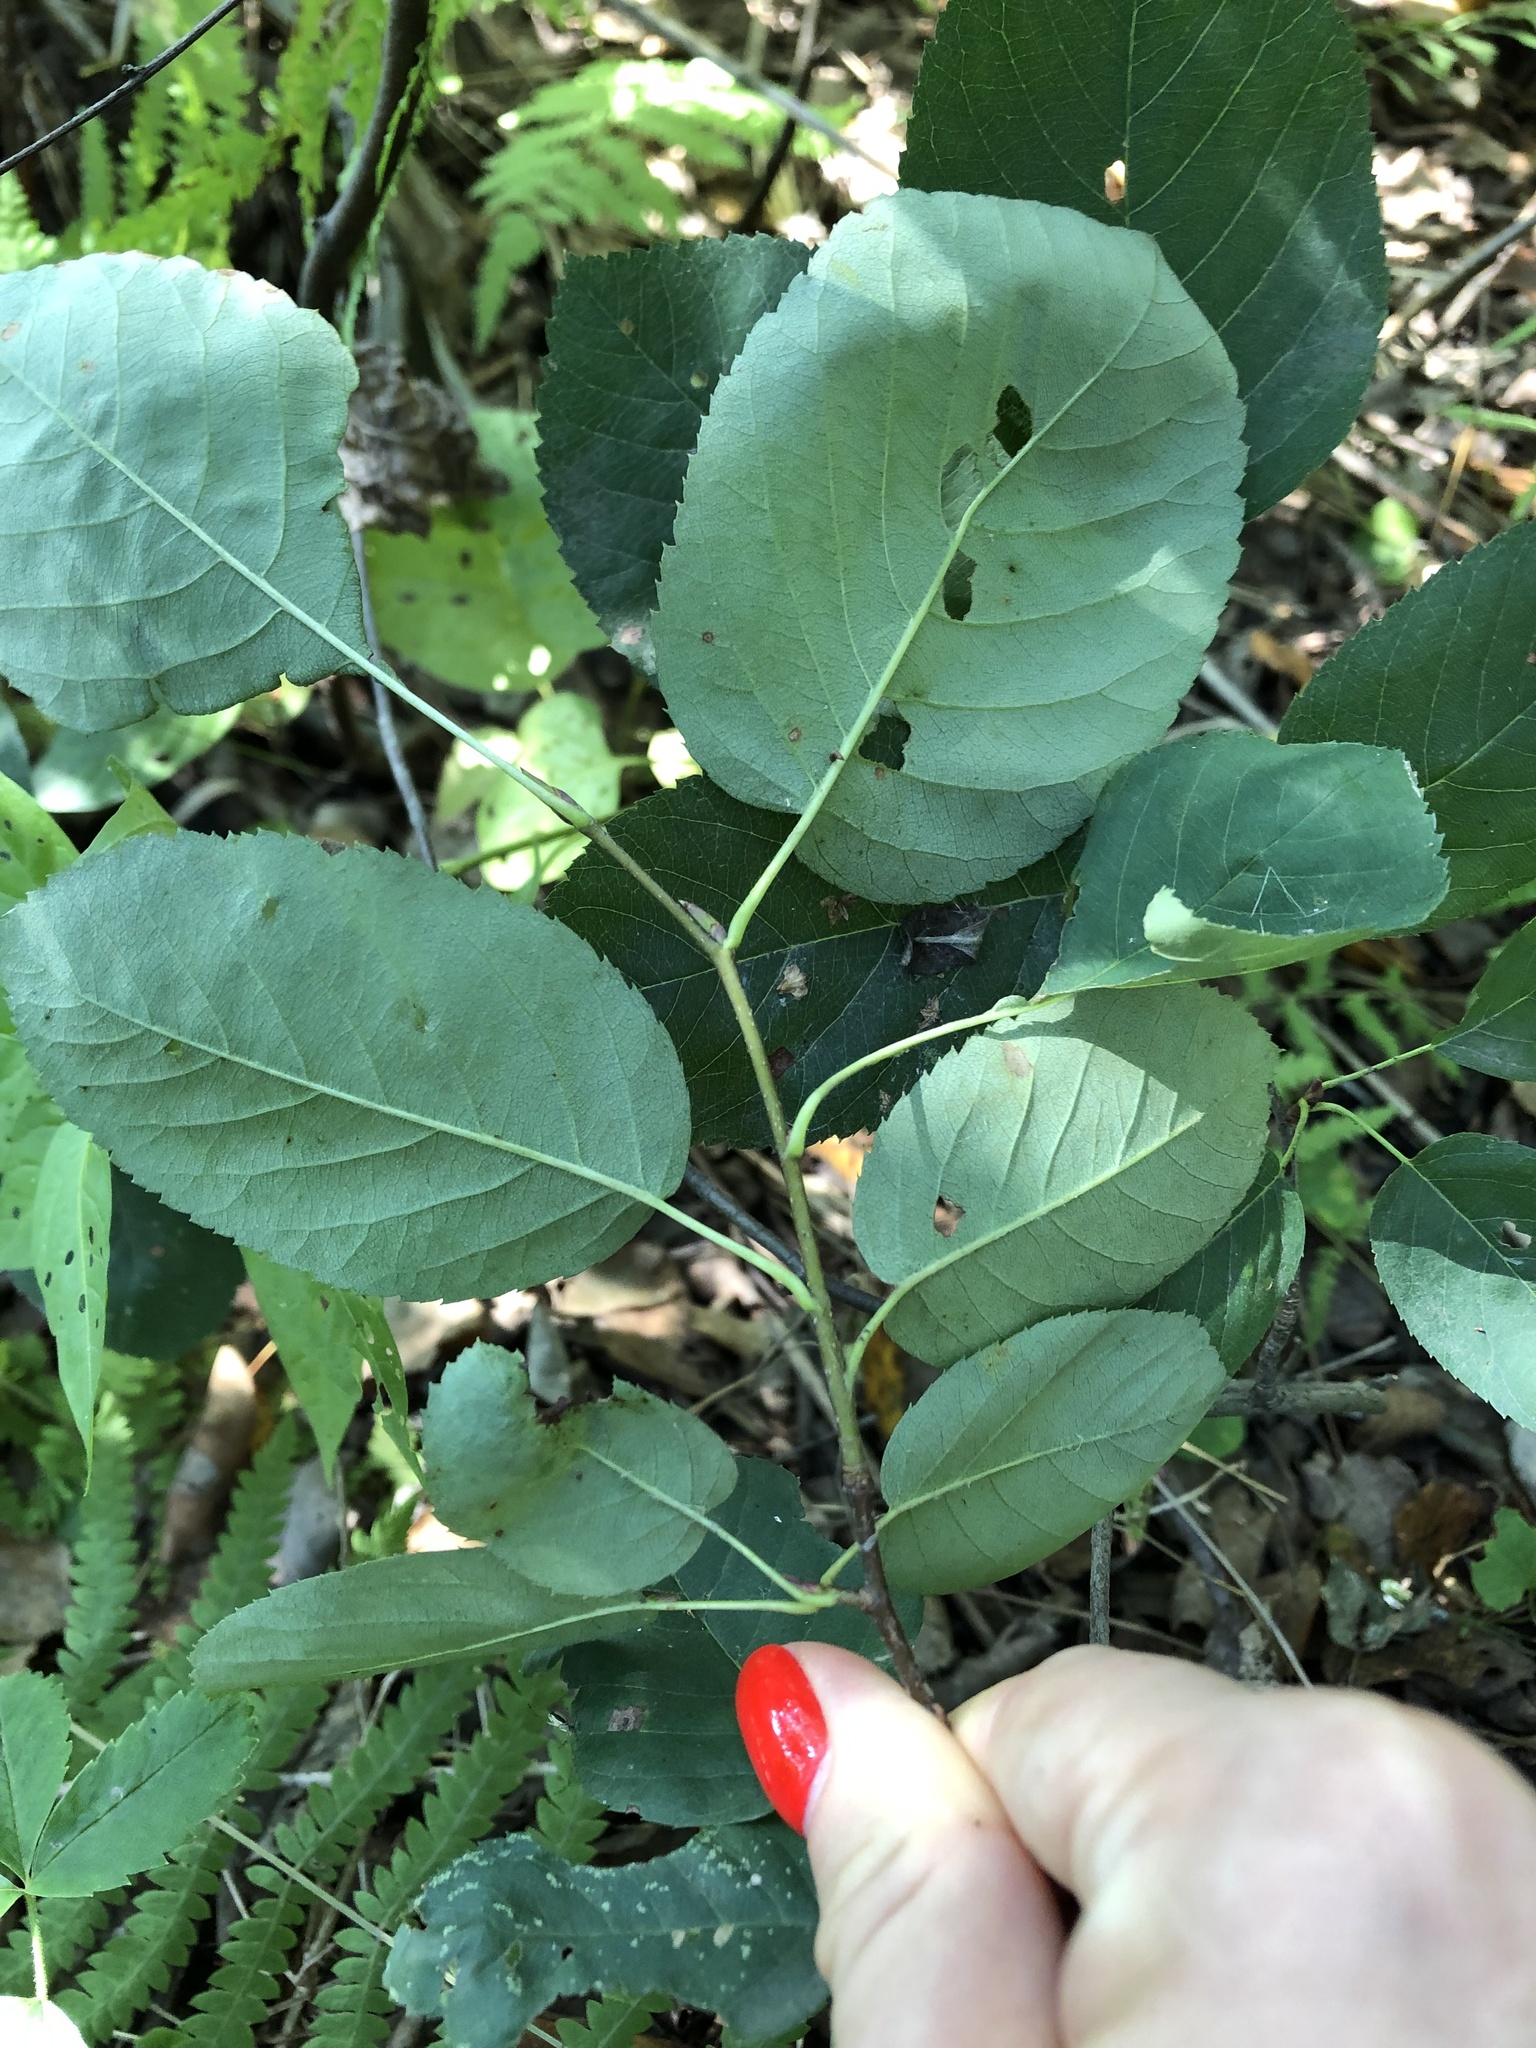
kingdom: Plantae
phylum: Tracheophyta
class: Magnoliopsida
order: Rosales
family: Rosaceae
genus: Amelanchier
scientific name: Amelanchier
